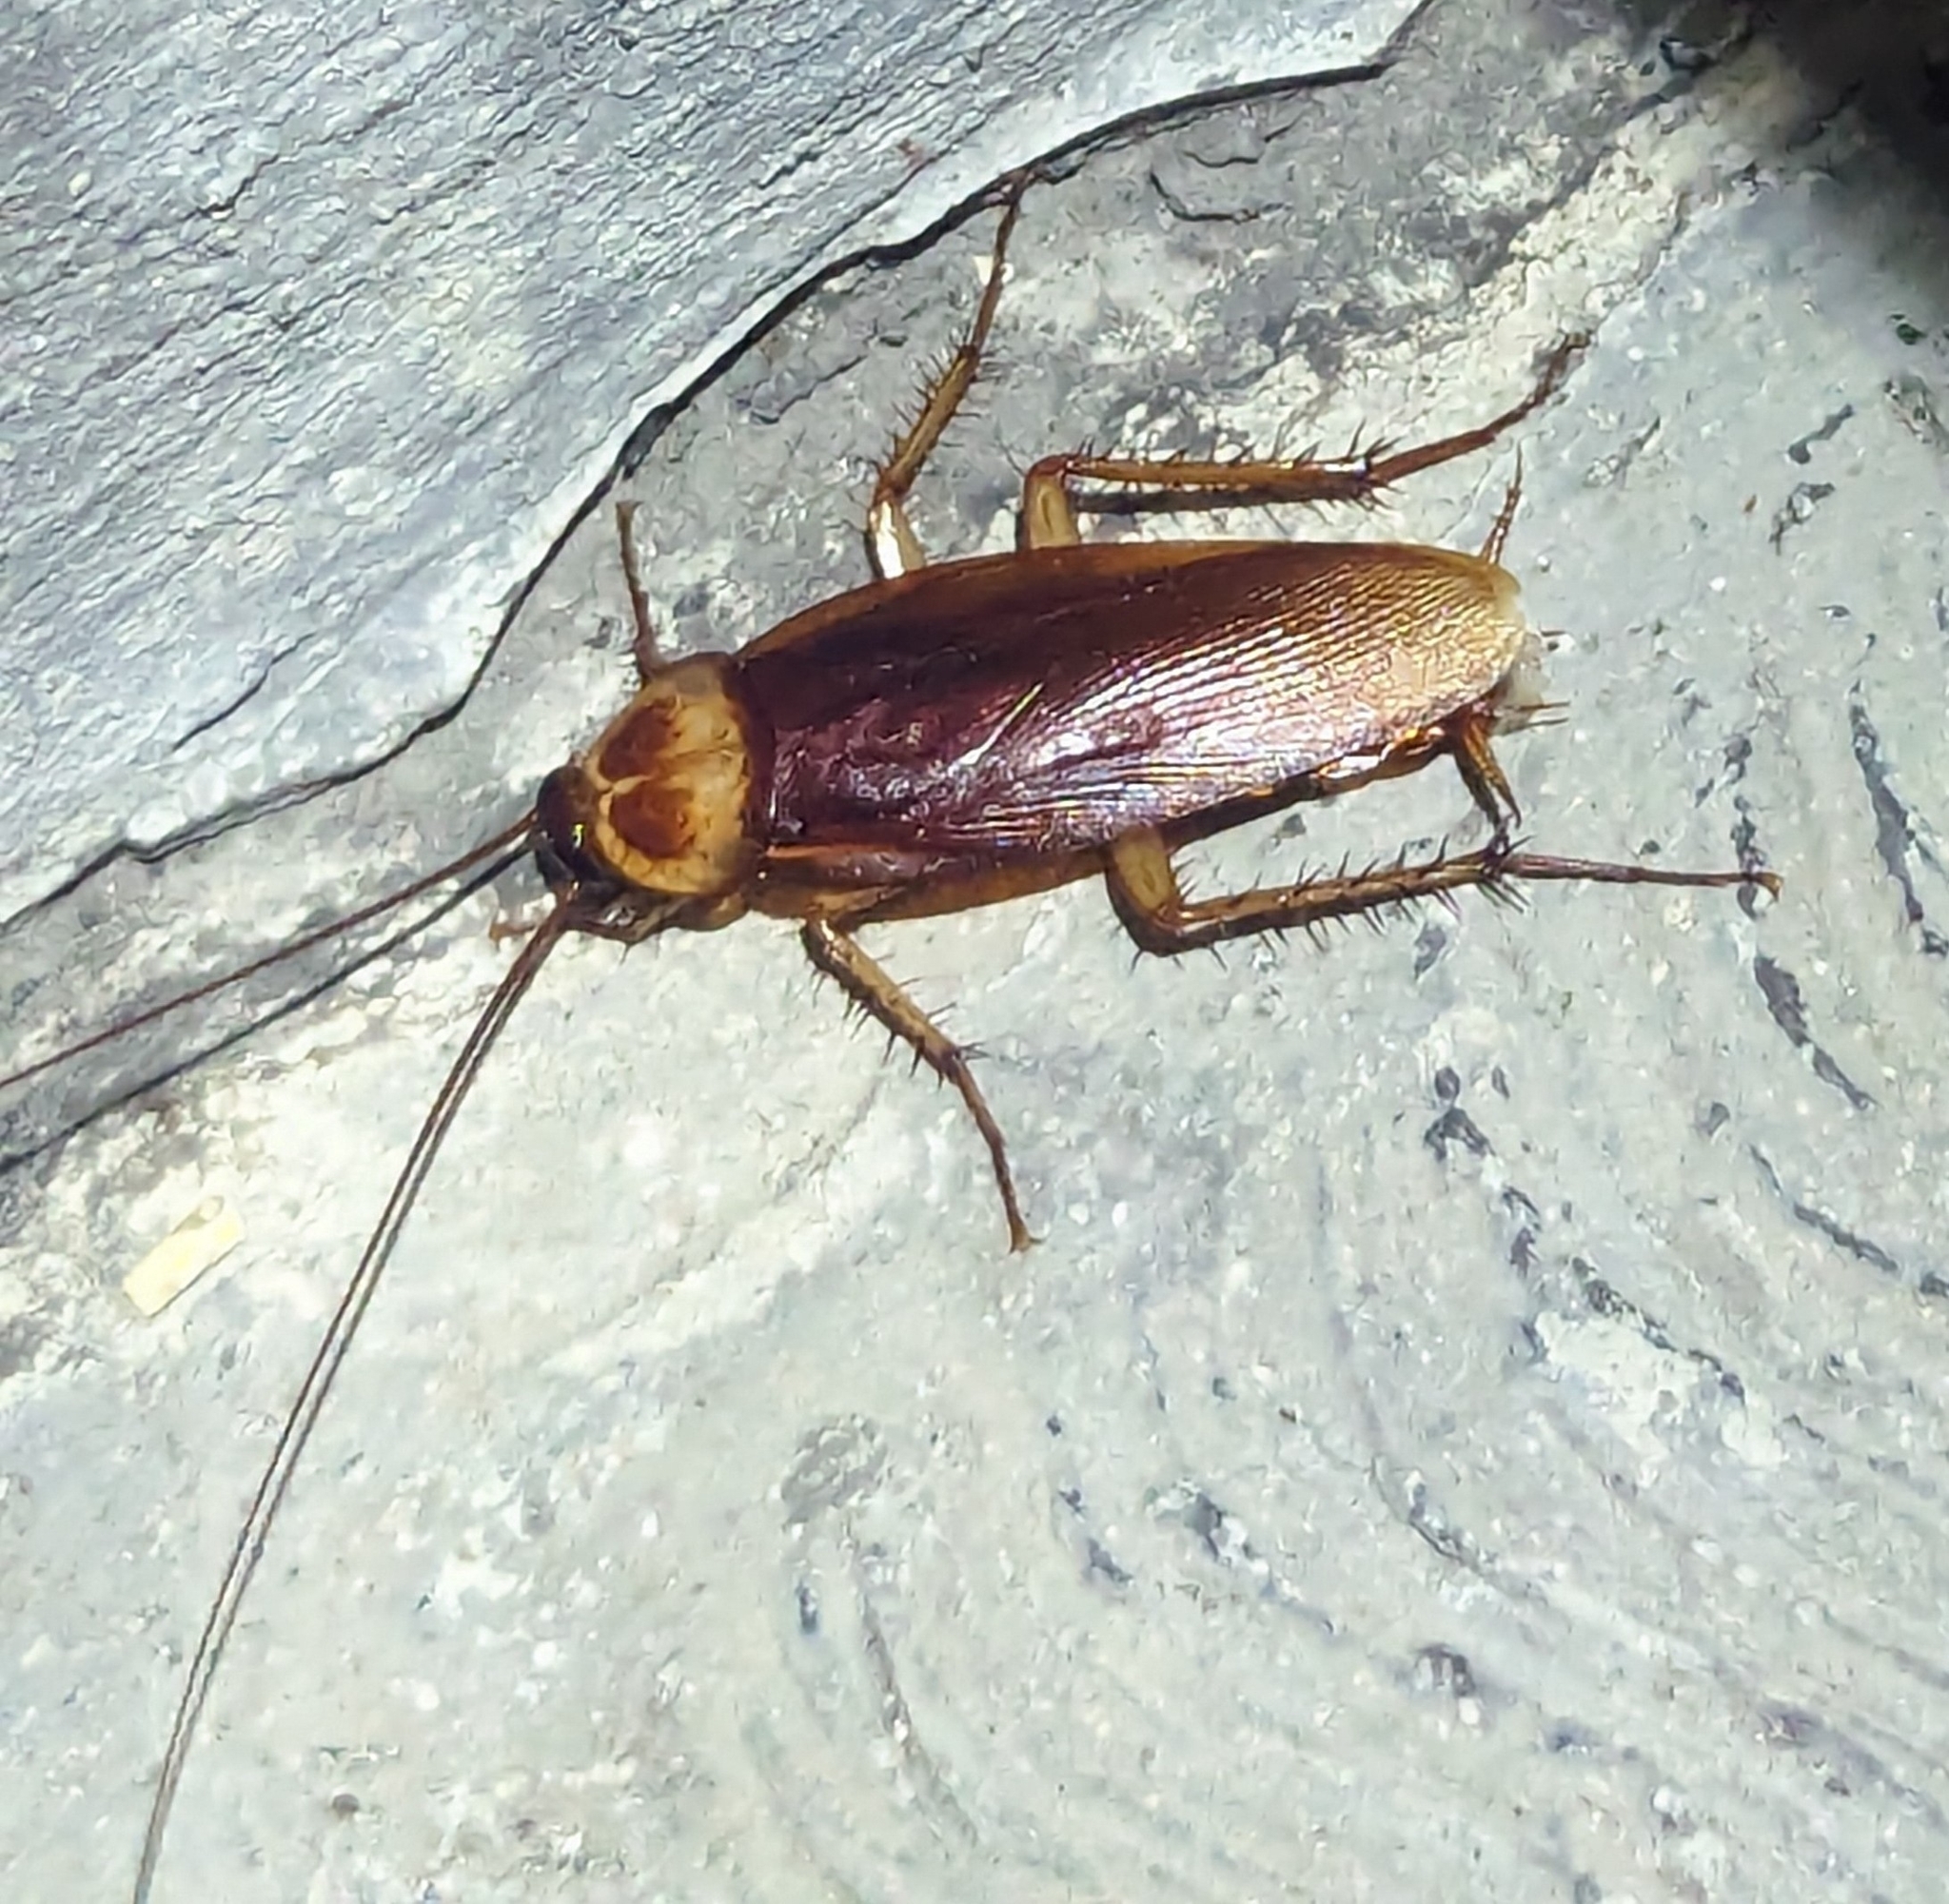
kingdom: Animalia
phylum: Arthropoda
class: Insecta
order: Blattodea
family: Blattidae
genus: Periplaneta
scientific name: Periplaneta americana
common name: American cockroach
